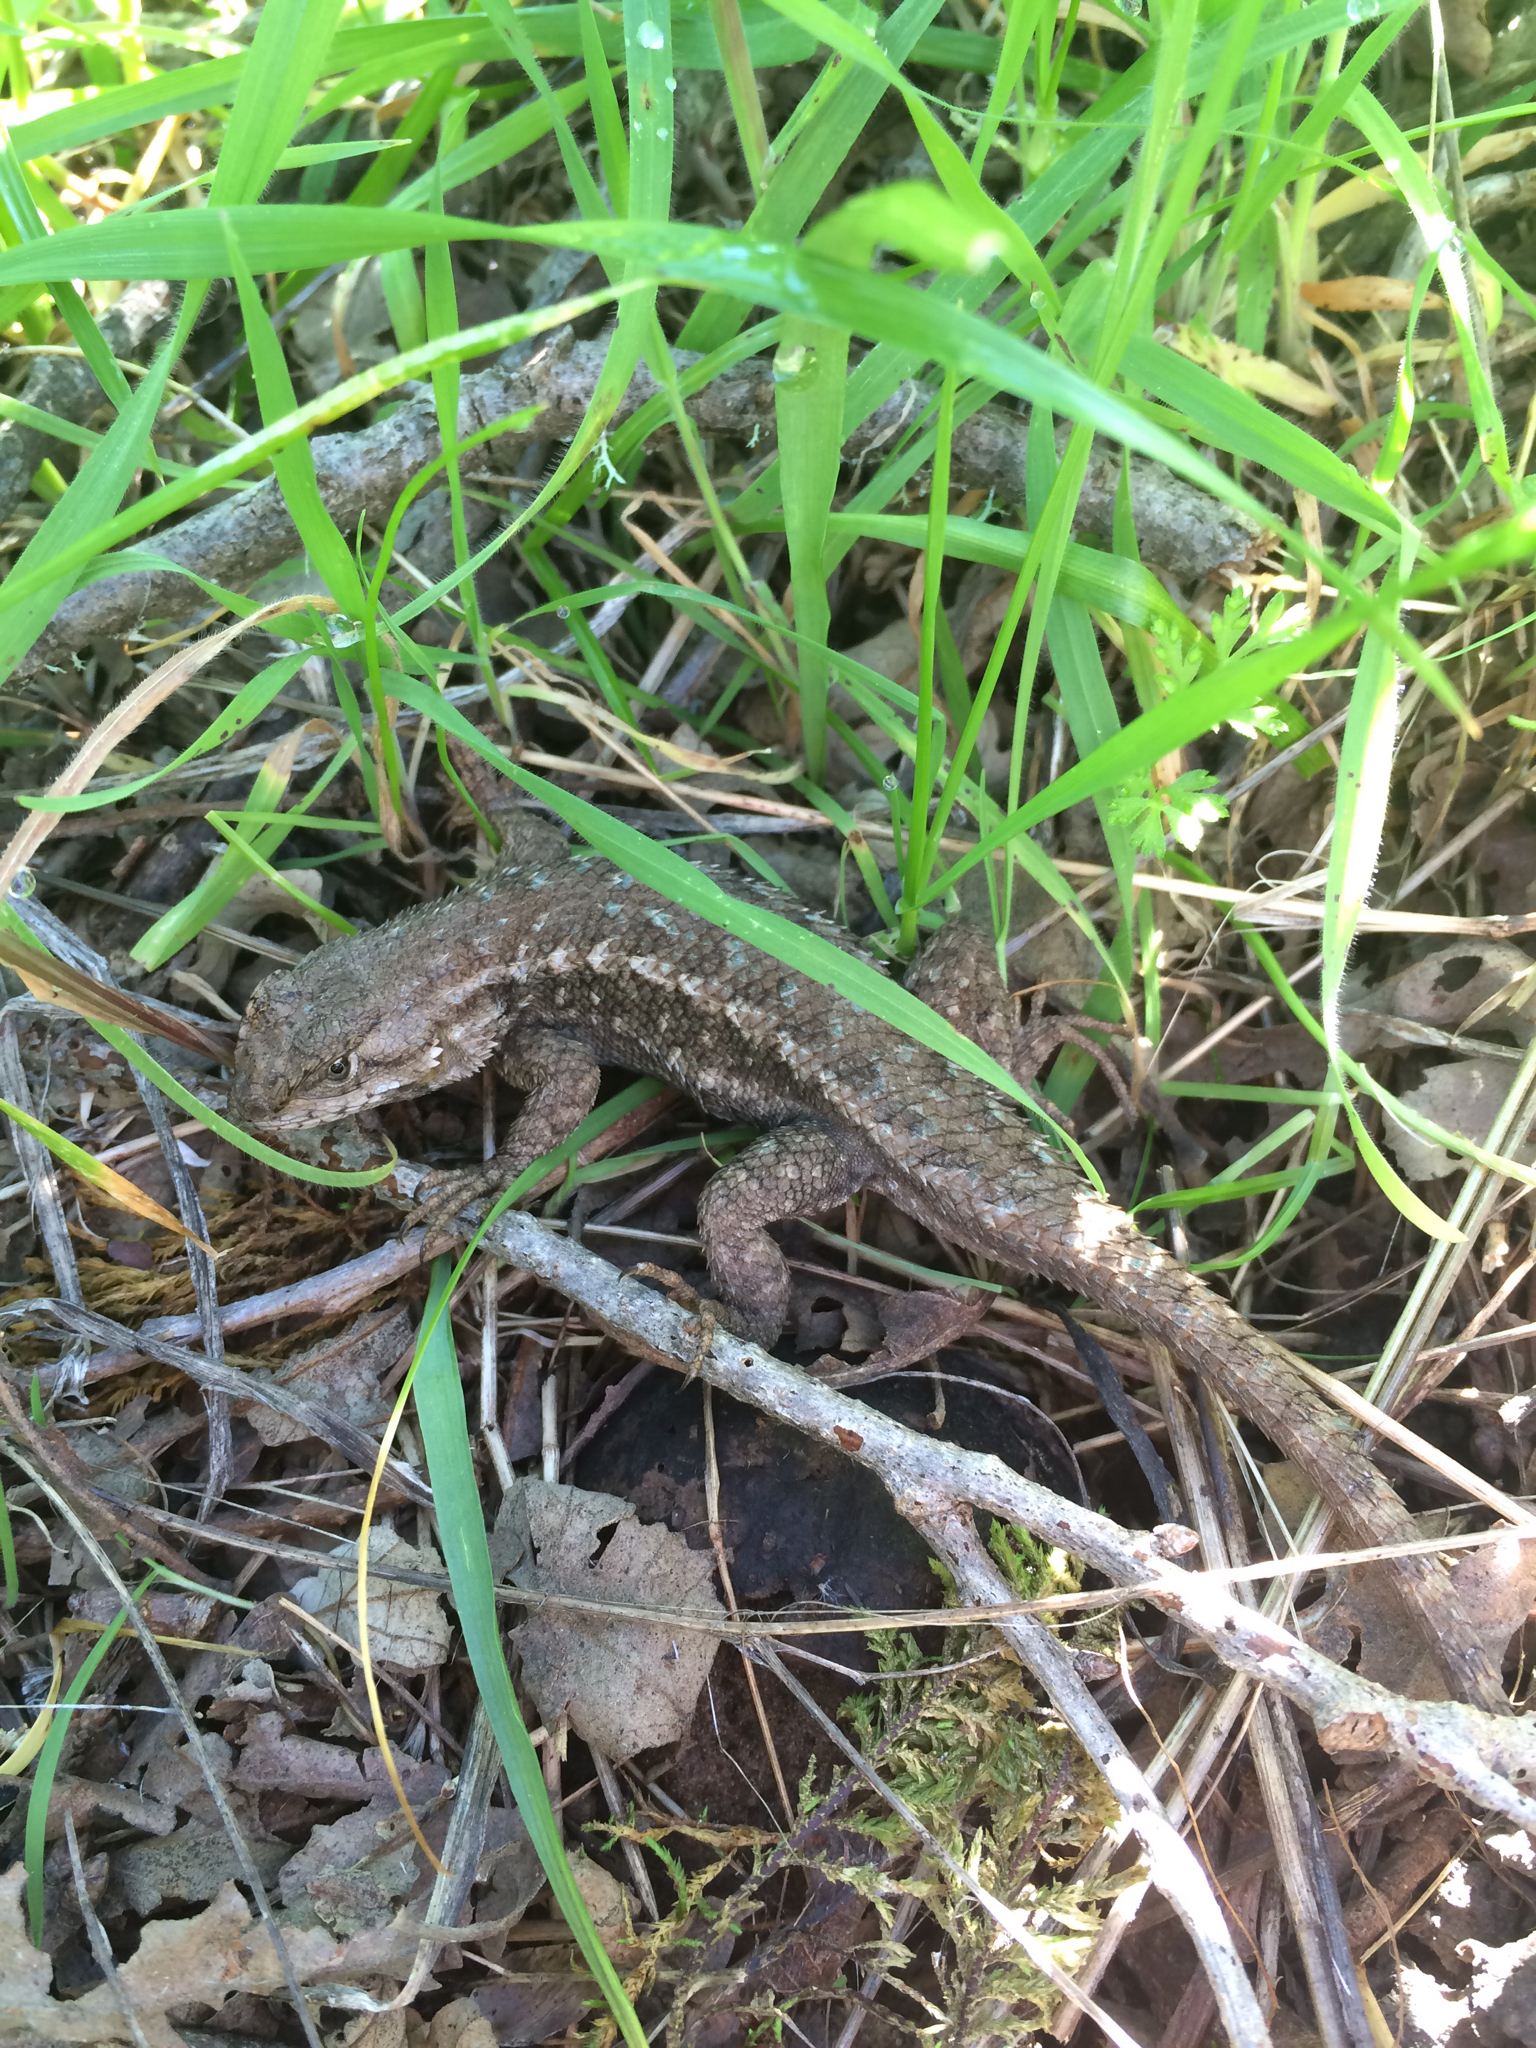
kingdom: Animalia
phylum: Chordata
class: Squamata
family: Phrynosomatidae
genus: Sceloporus
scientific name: Sceloporus occidentalis
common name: Western fence lizard
